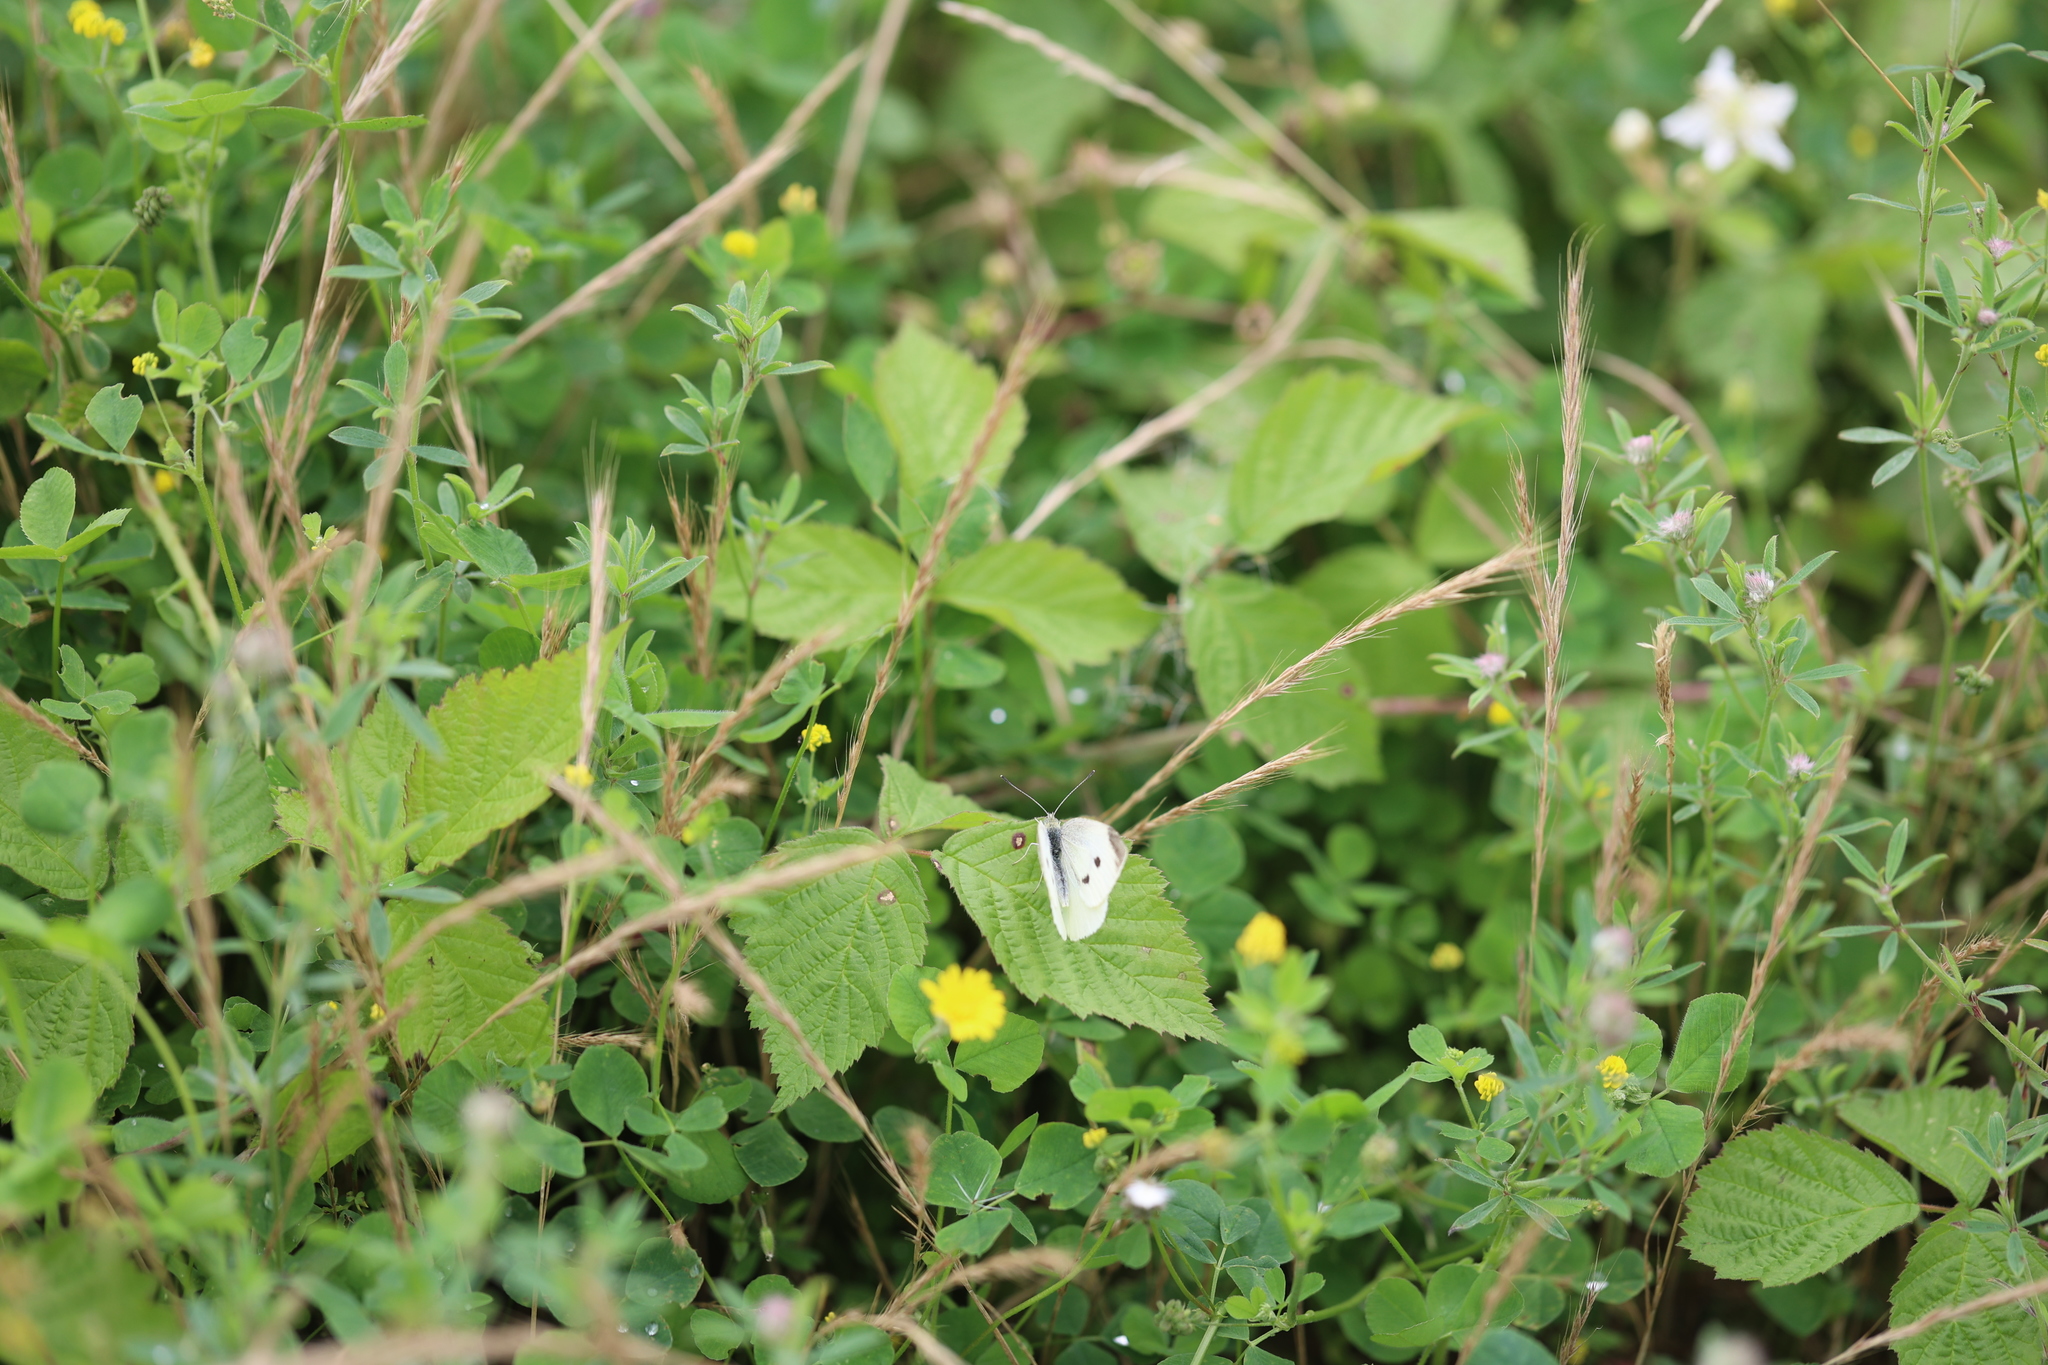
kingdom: Animalia
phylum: Arthropoda
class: Insecta
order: Lepidoptera
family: Pieridae
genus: Pieris
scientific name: Pieris rapae
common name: Small white
